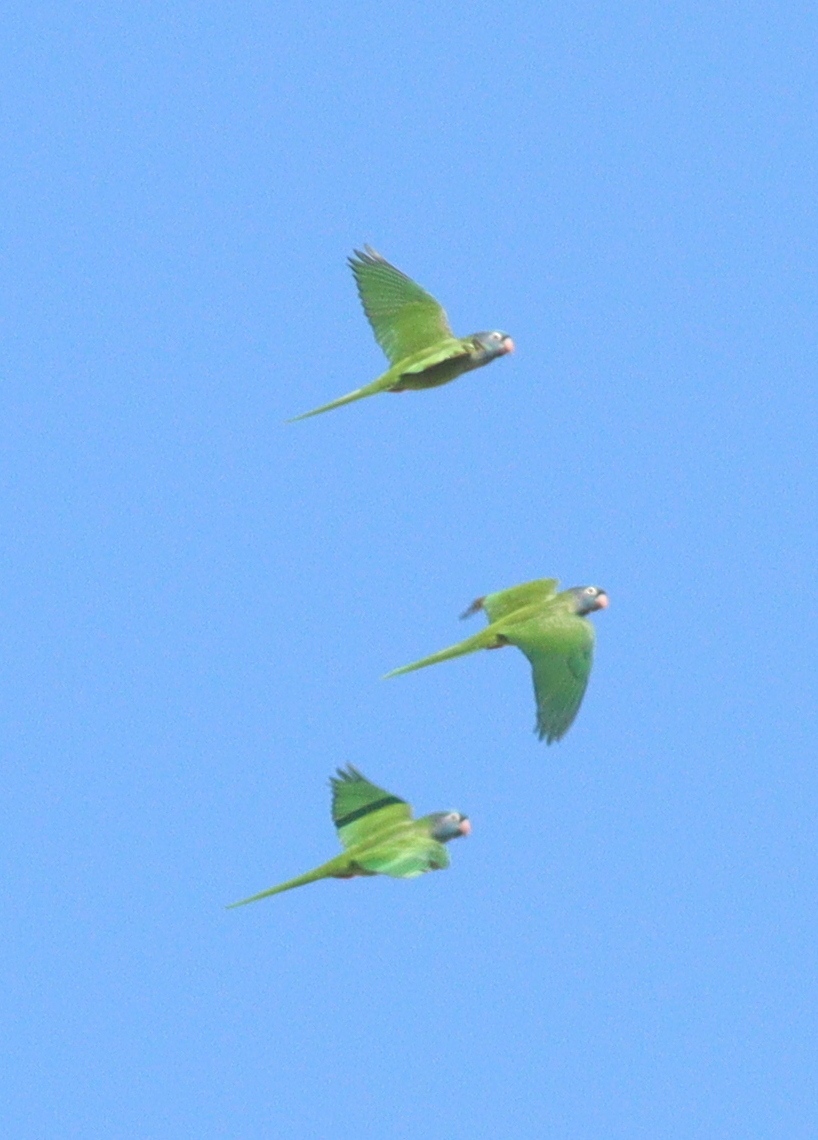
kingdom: Animalia
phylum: Chordata
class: Aves
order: Psittaciformes
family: Psittacidae
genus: Aratinga
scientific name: Aratinga acuticaudata
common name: Blue-crowned parakeet
